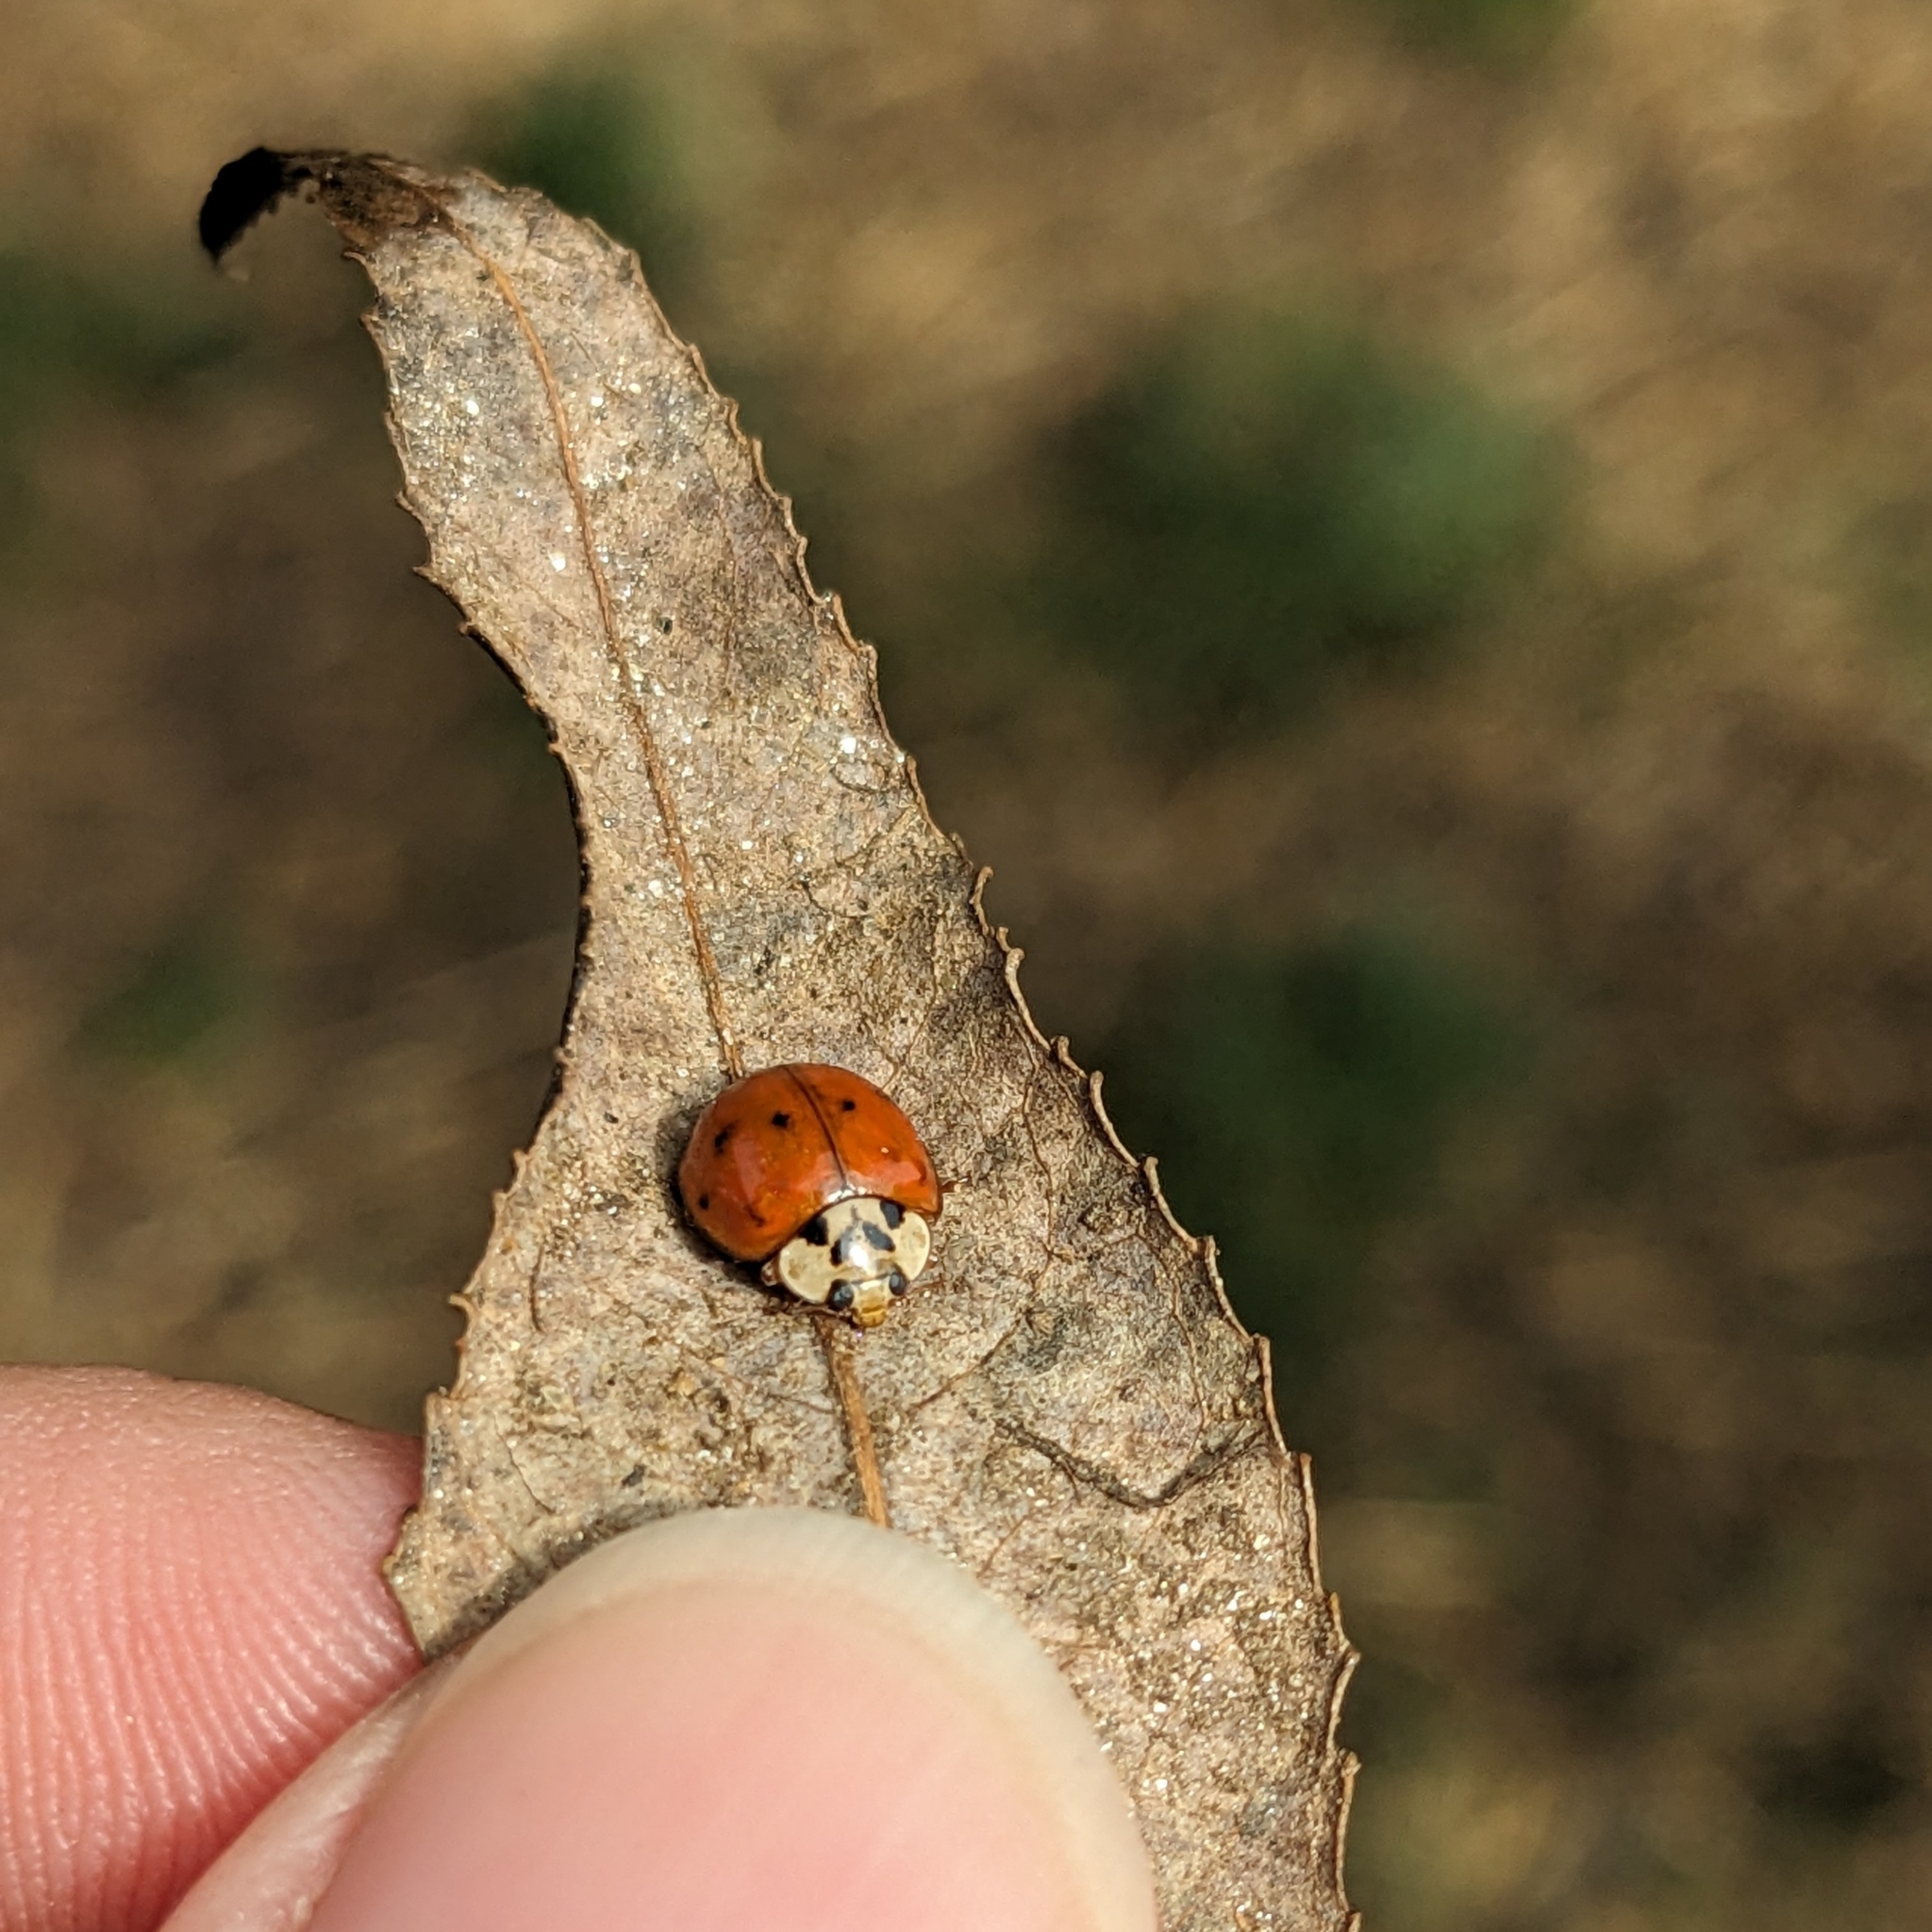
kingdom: Animalia
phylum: Arthropoda
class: Insecta
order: Coleoptera
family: Coccinellidae
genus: Harmonia
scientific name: Harmonia axyridis
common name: Harlequin ladybird
